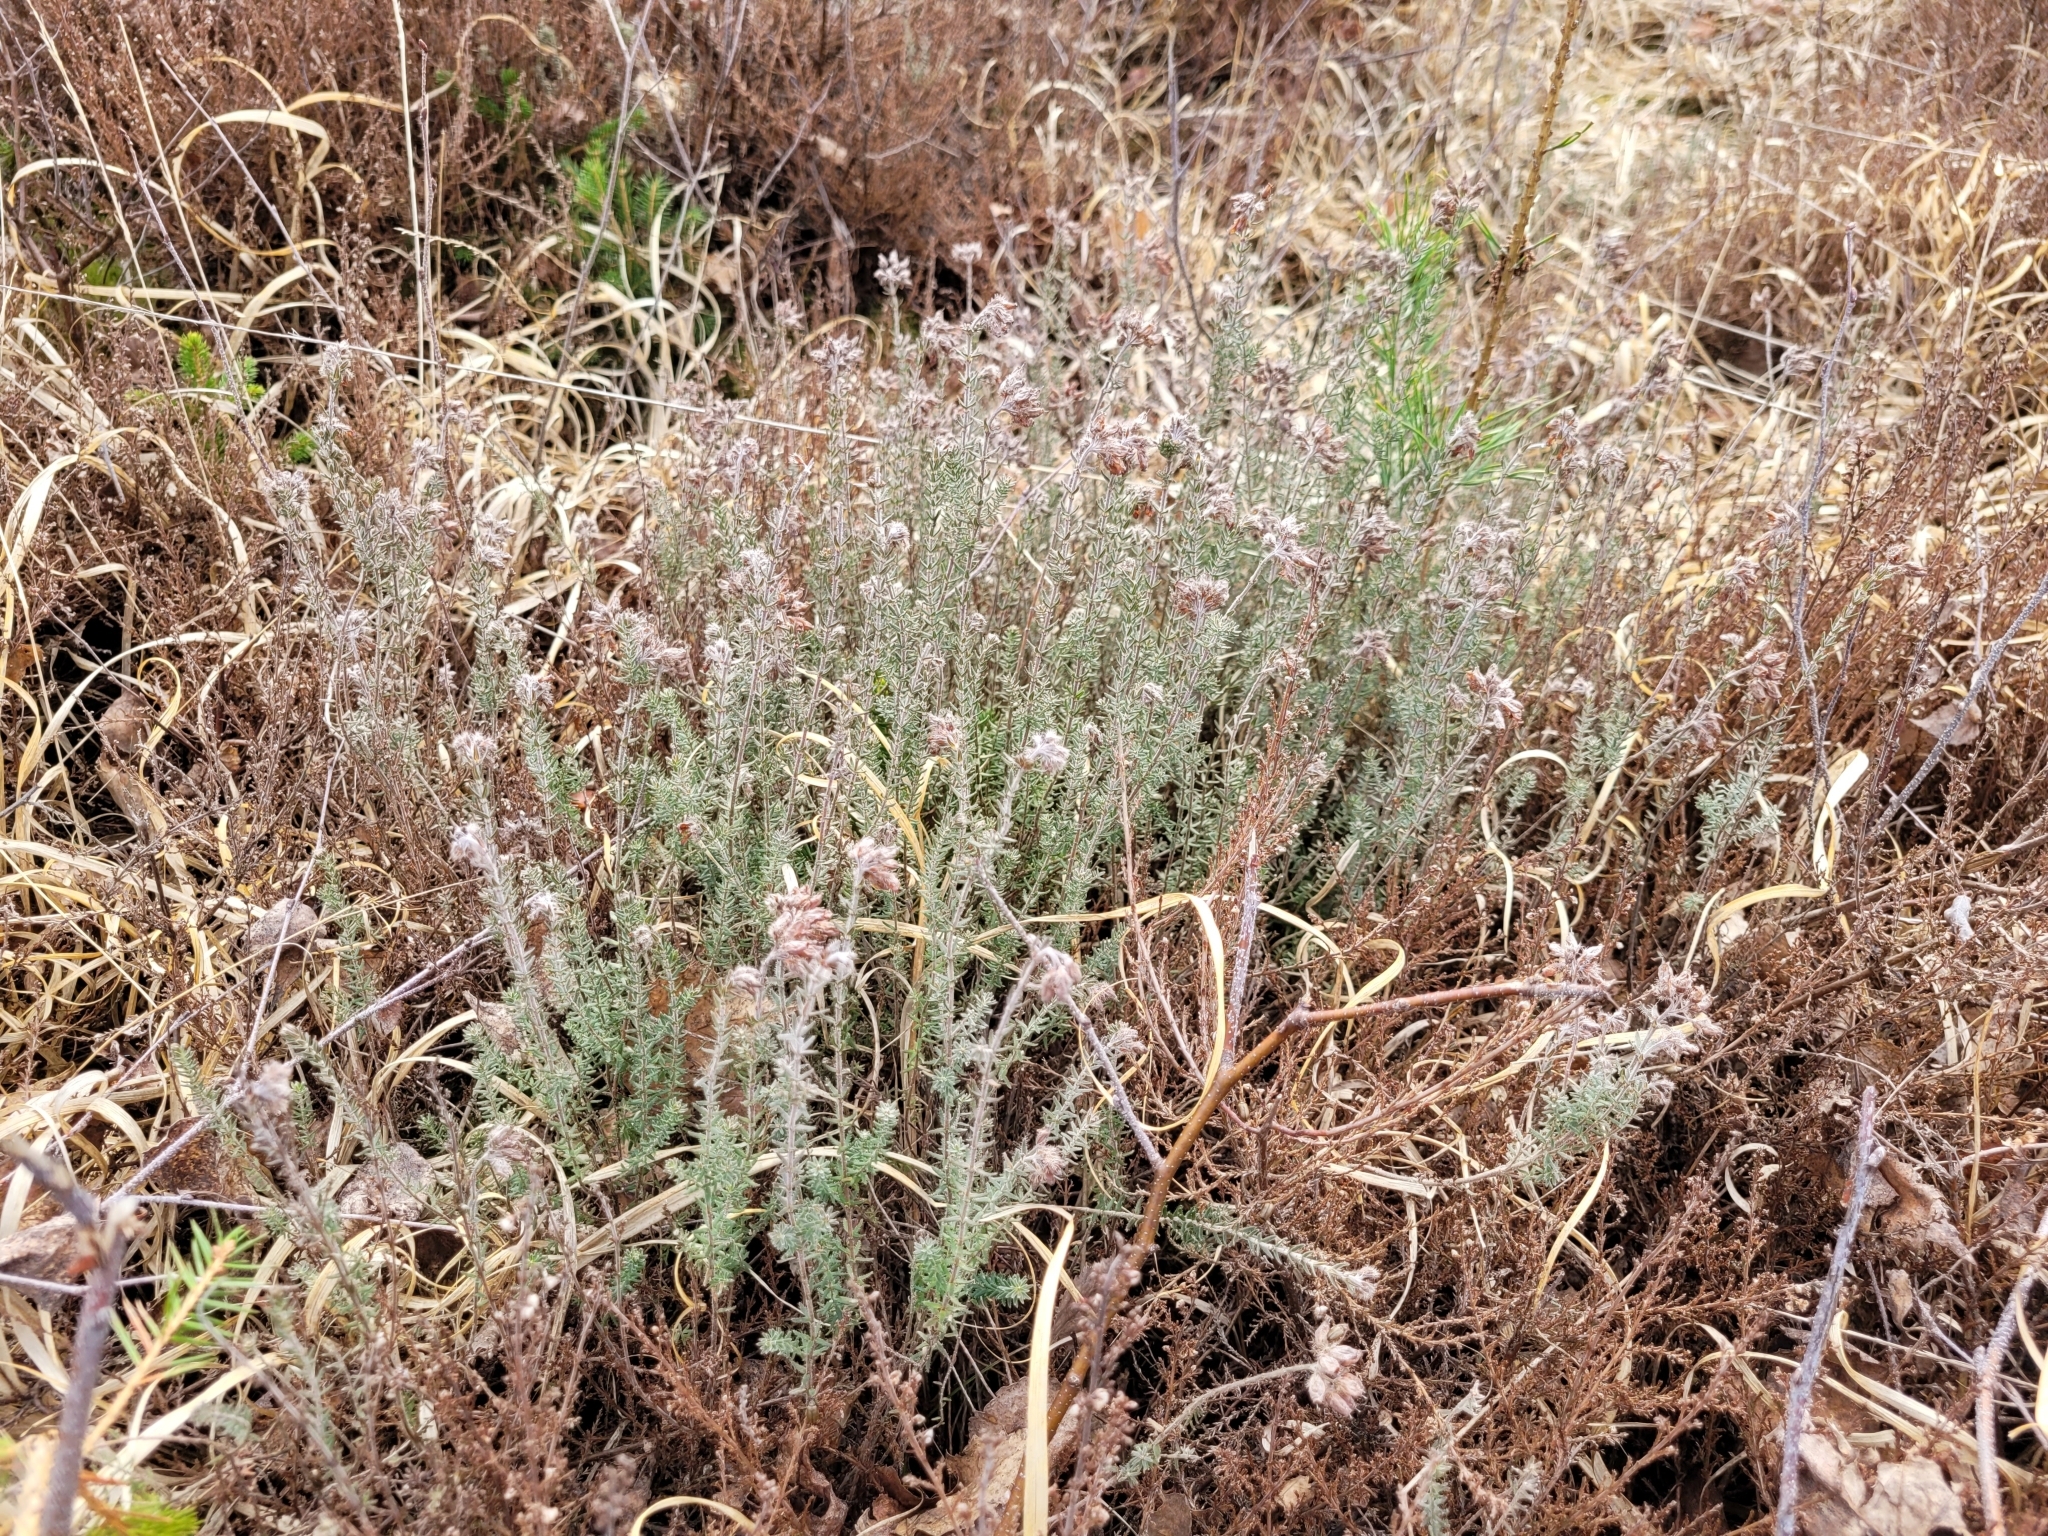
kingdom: Plantae
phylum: Tracheophyta
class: Magnoliopsida
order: Ericales
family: Ericaceae
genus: Erica
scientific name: Erica tetralix
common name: Cross-leaved heath
